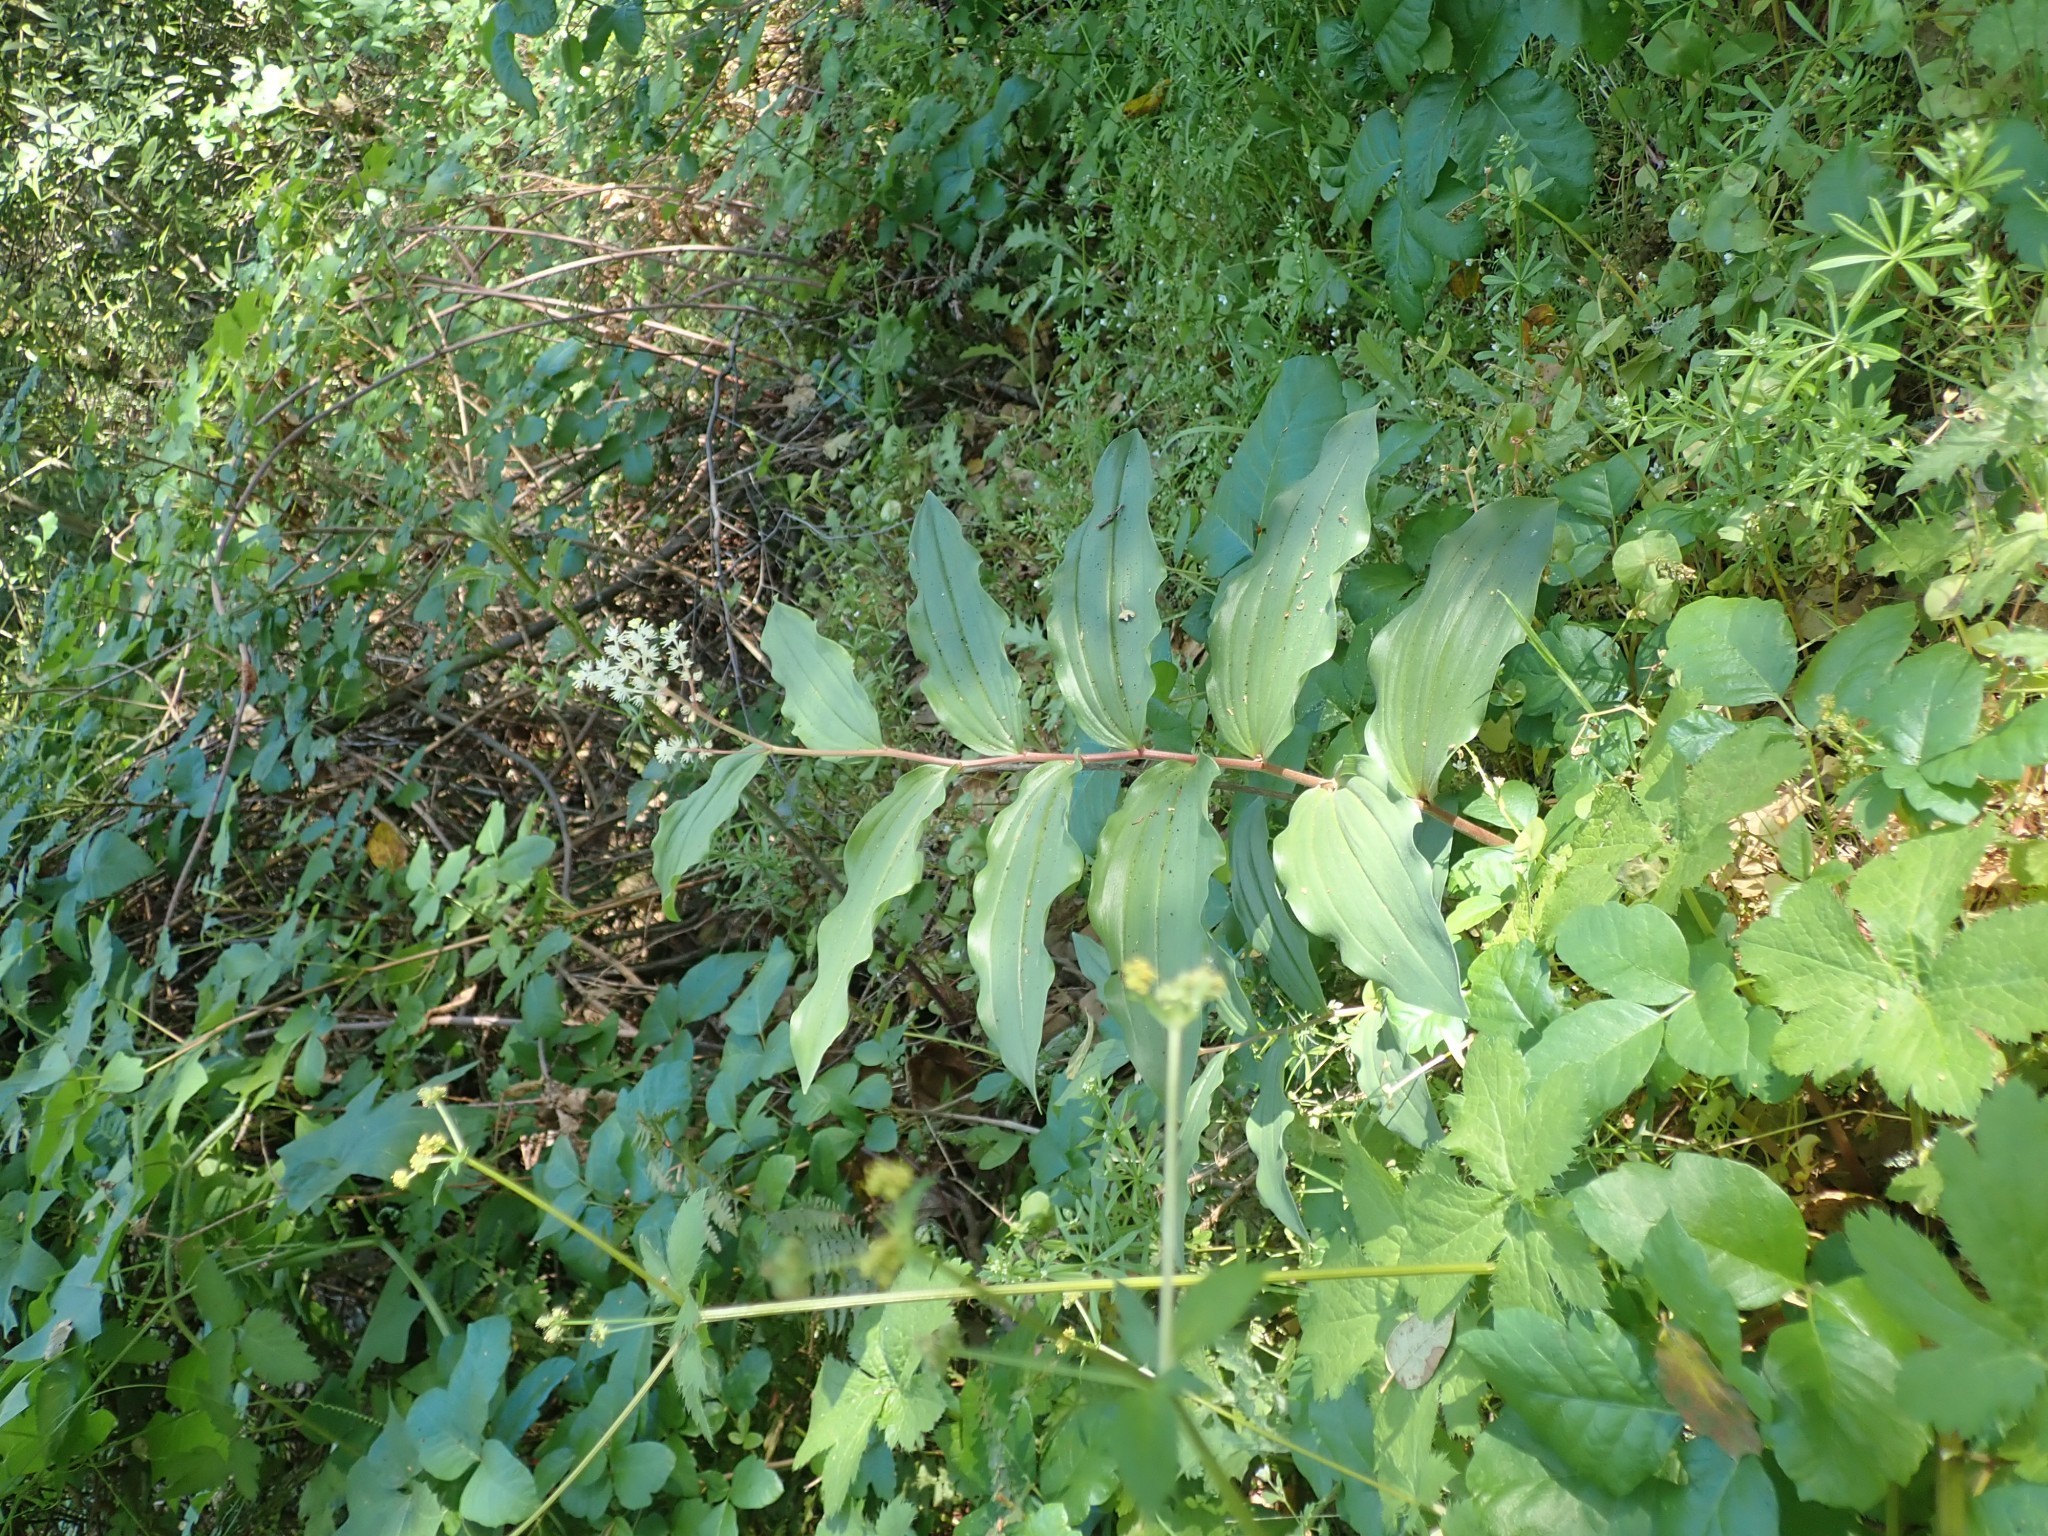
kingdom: Plantae
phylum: Tracheophyta
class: Liliopsida
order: Asparagales
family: Asparagaceae
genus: Maianthemum
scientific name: Maianthemum racemosum
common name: False spikenard
